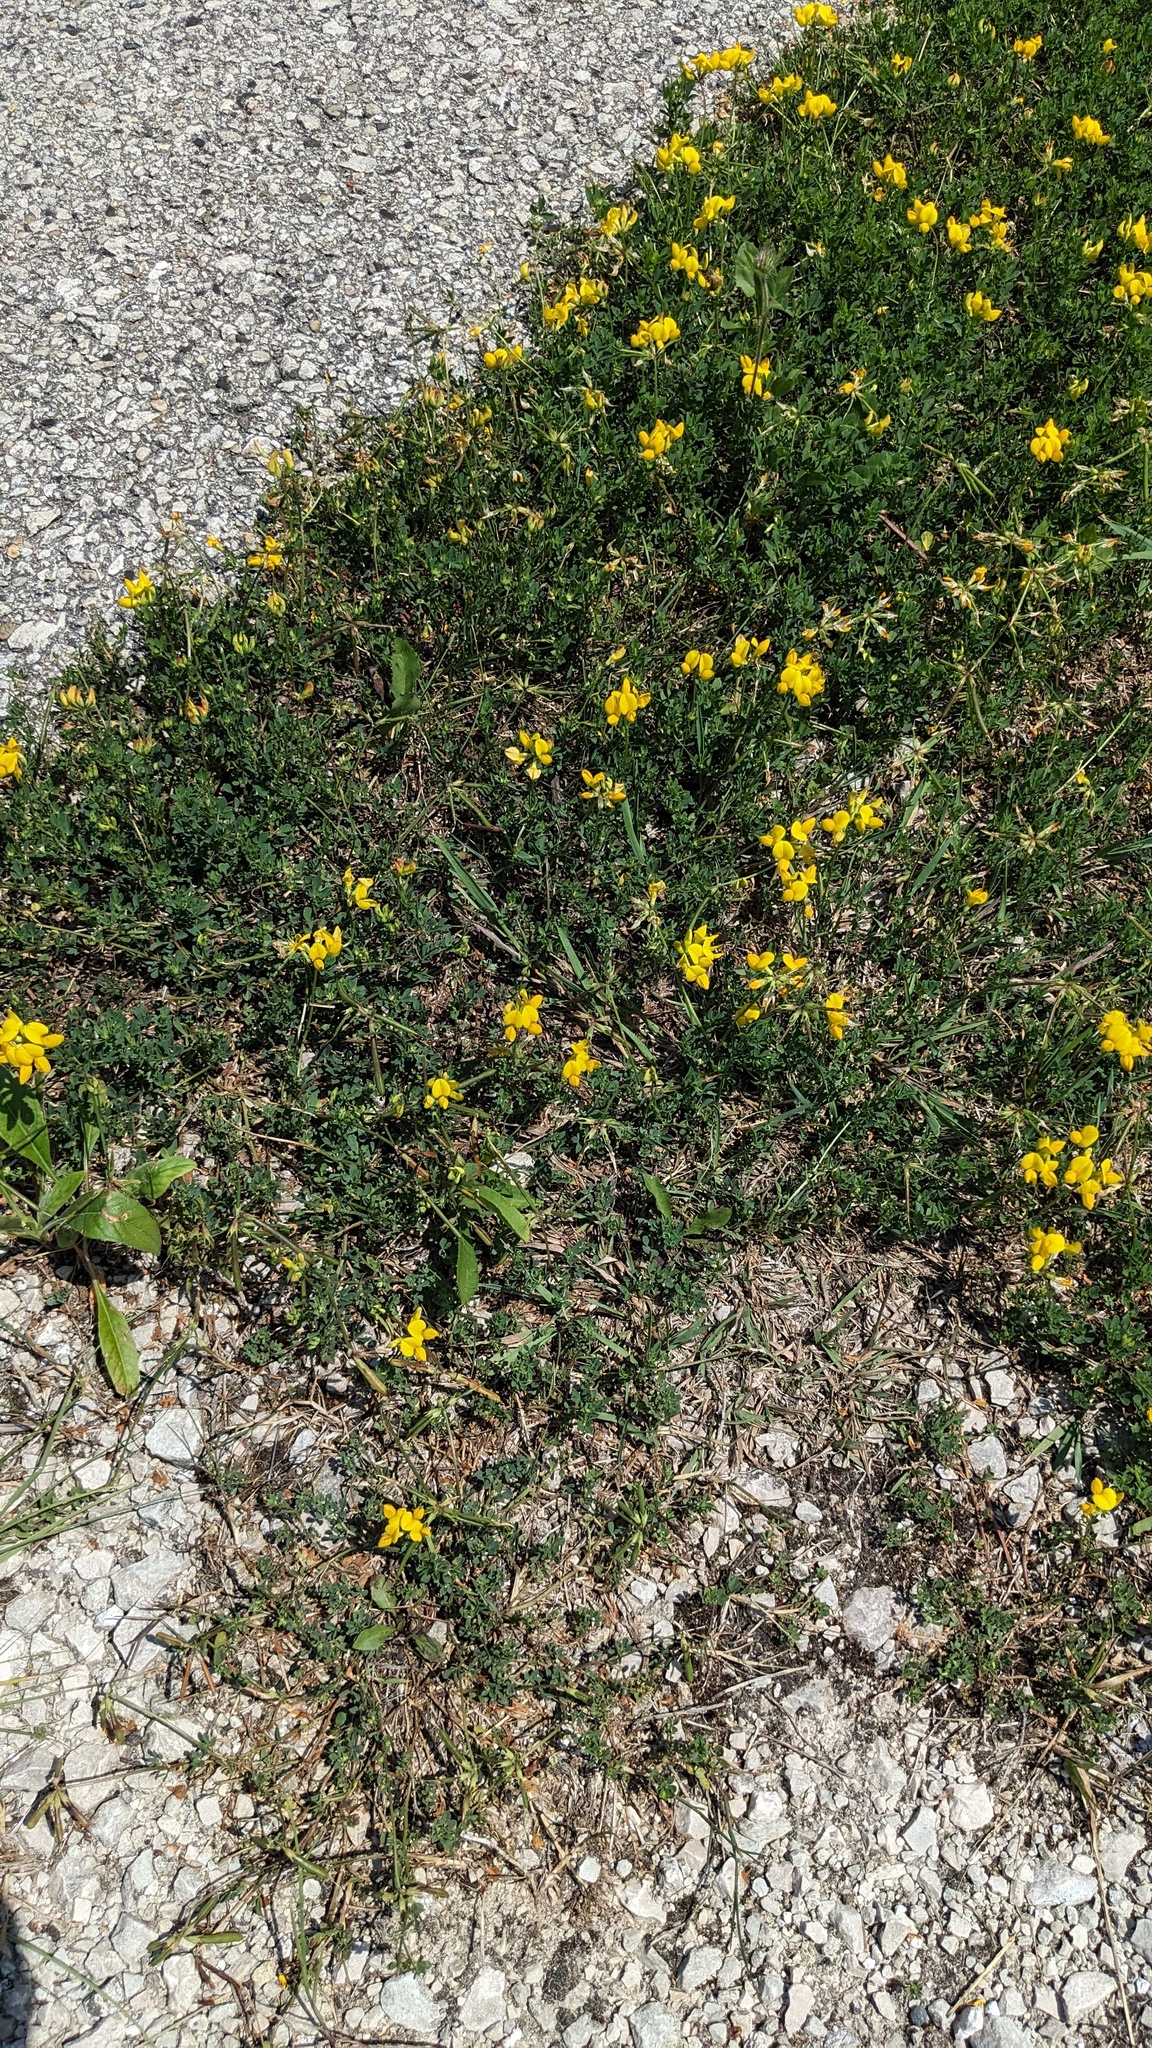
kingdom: Plantae
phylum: Tracheophyta
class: Magnoliopsida
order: Fabales
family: Fabaceae
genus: Lotus
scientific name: Lotus corniculatus
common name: Common bird's-foot-trefoil
